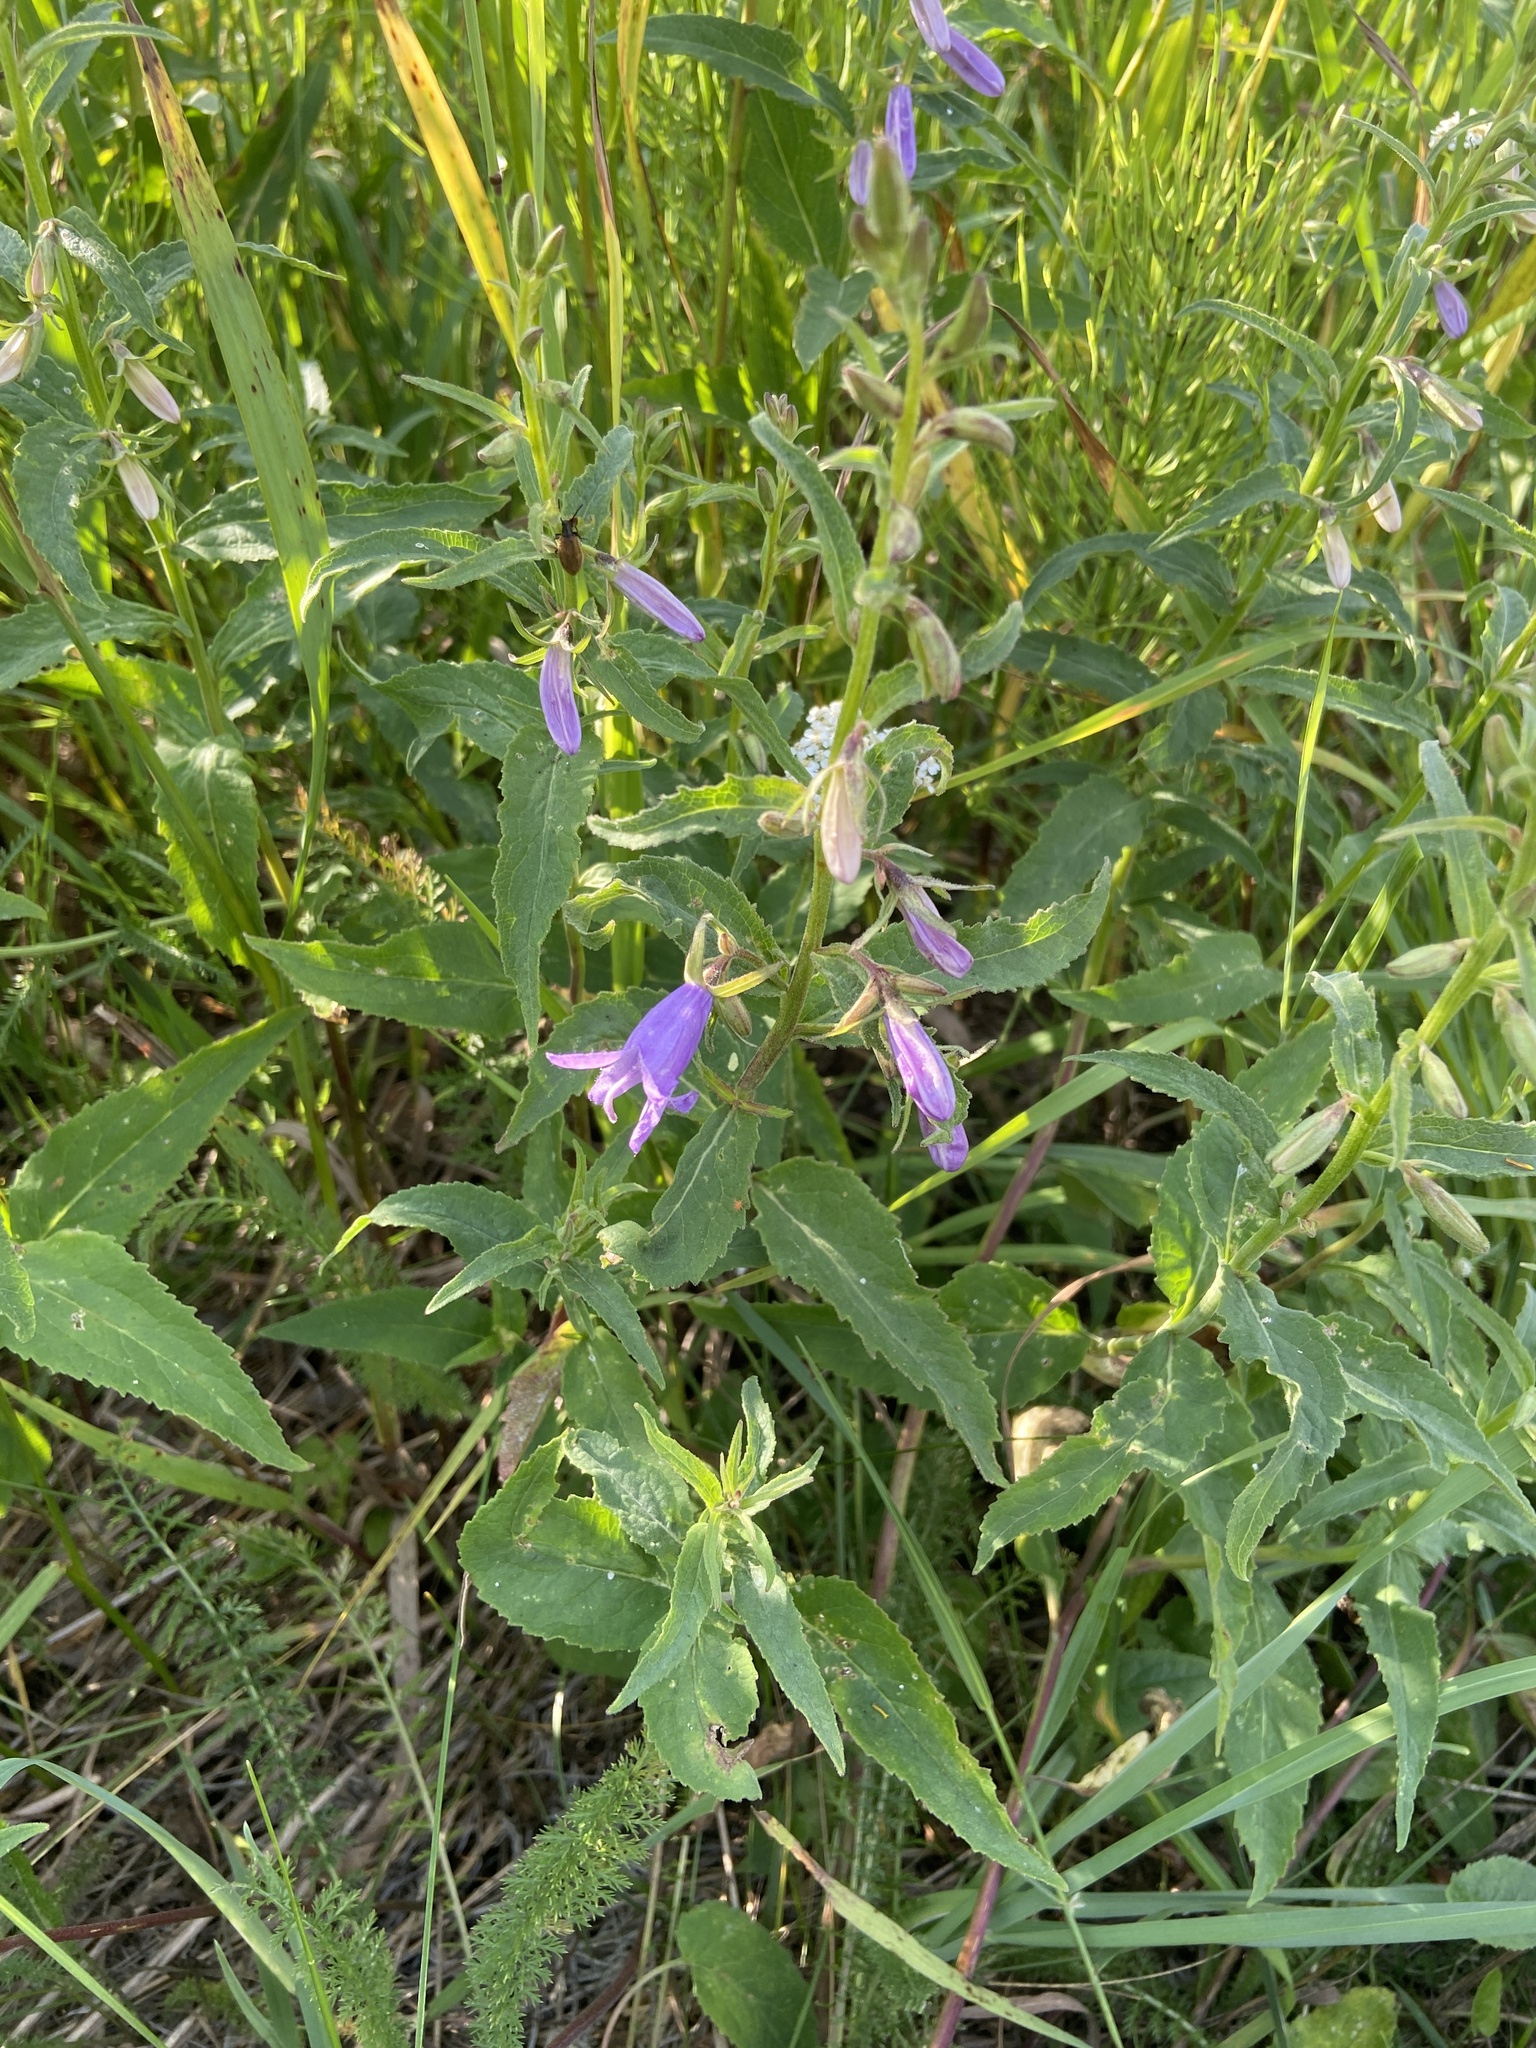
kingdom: Plantae
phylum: Tracheophyta
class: Magnoliopsida
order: Asterales
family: Campanulaceae
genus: Campanula
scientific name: Campanula rapunculoides
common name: Creeping bellflower
